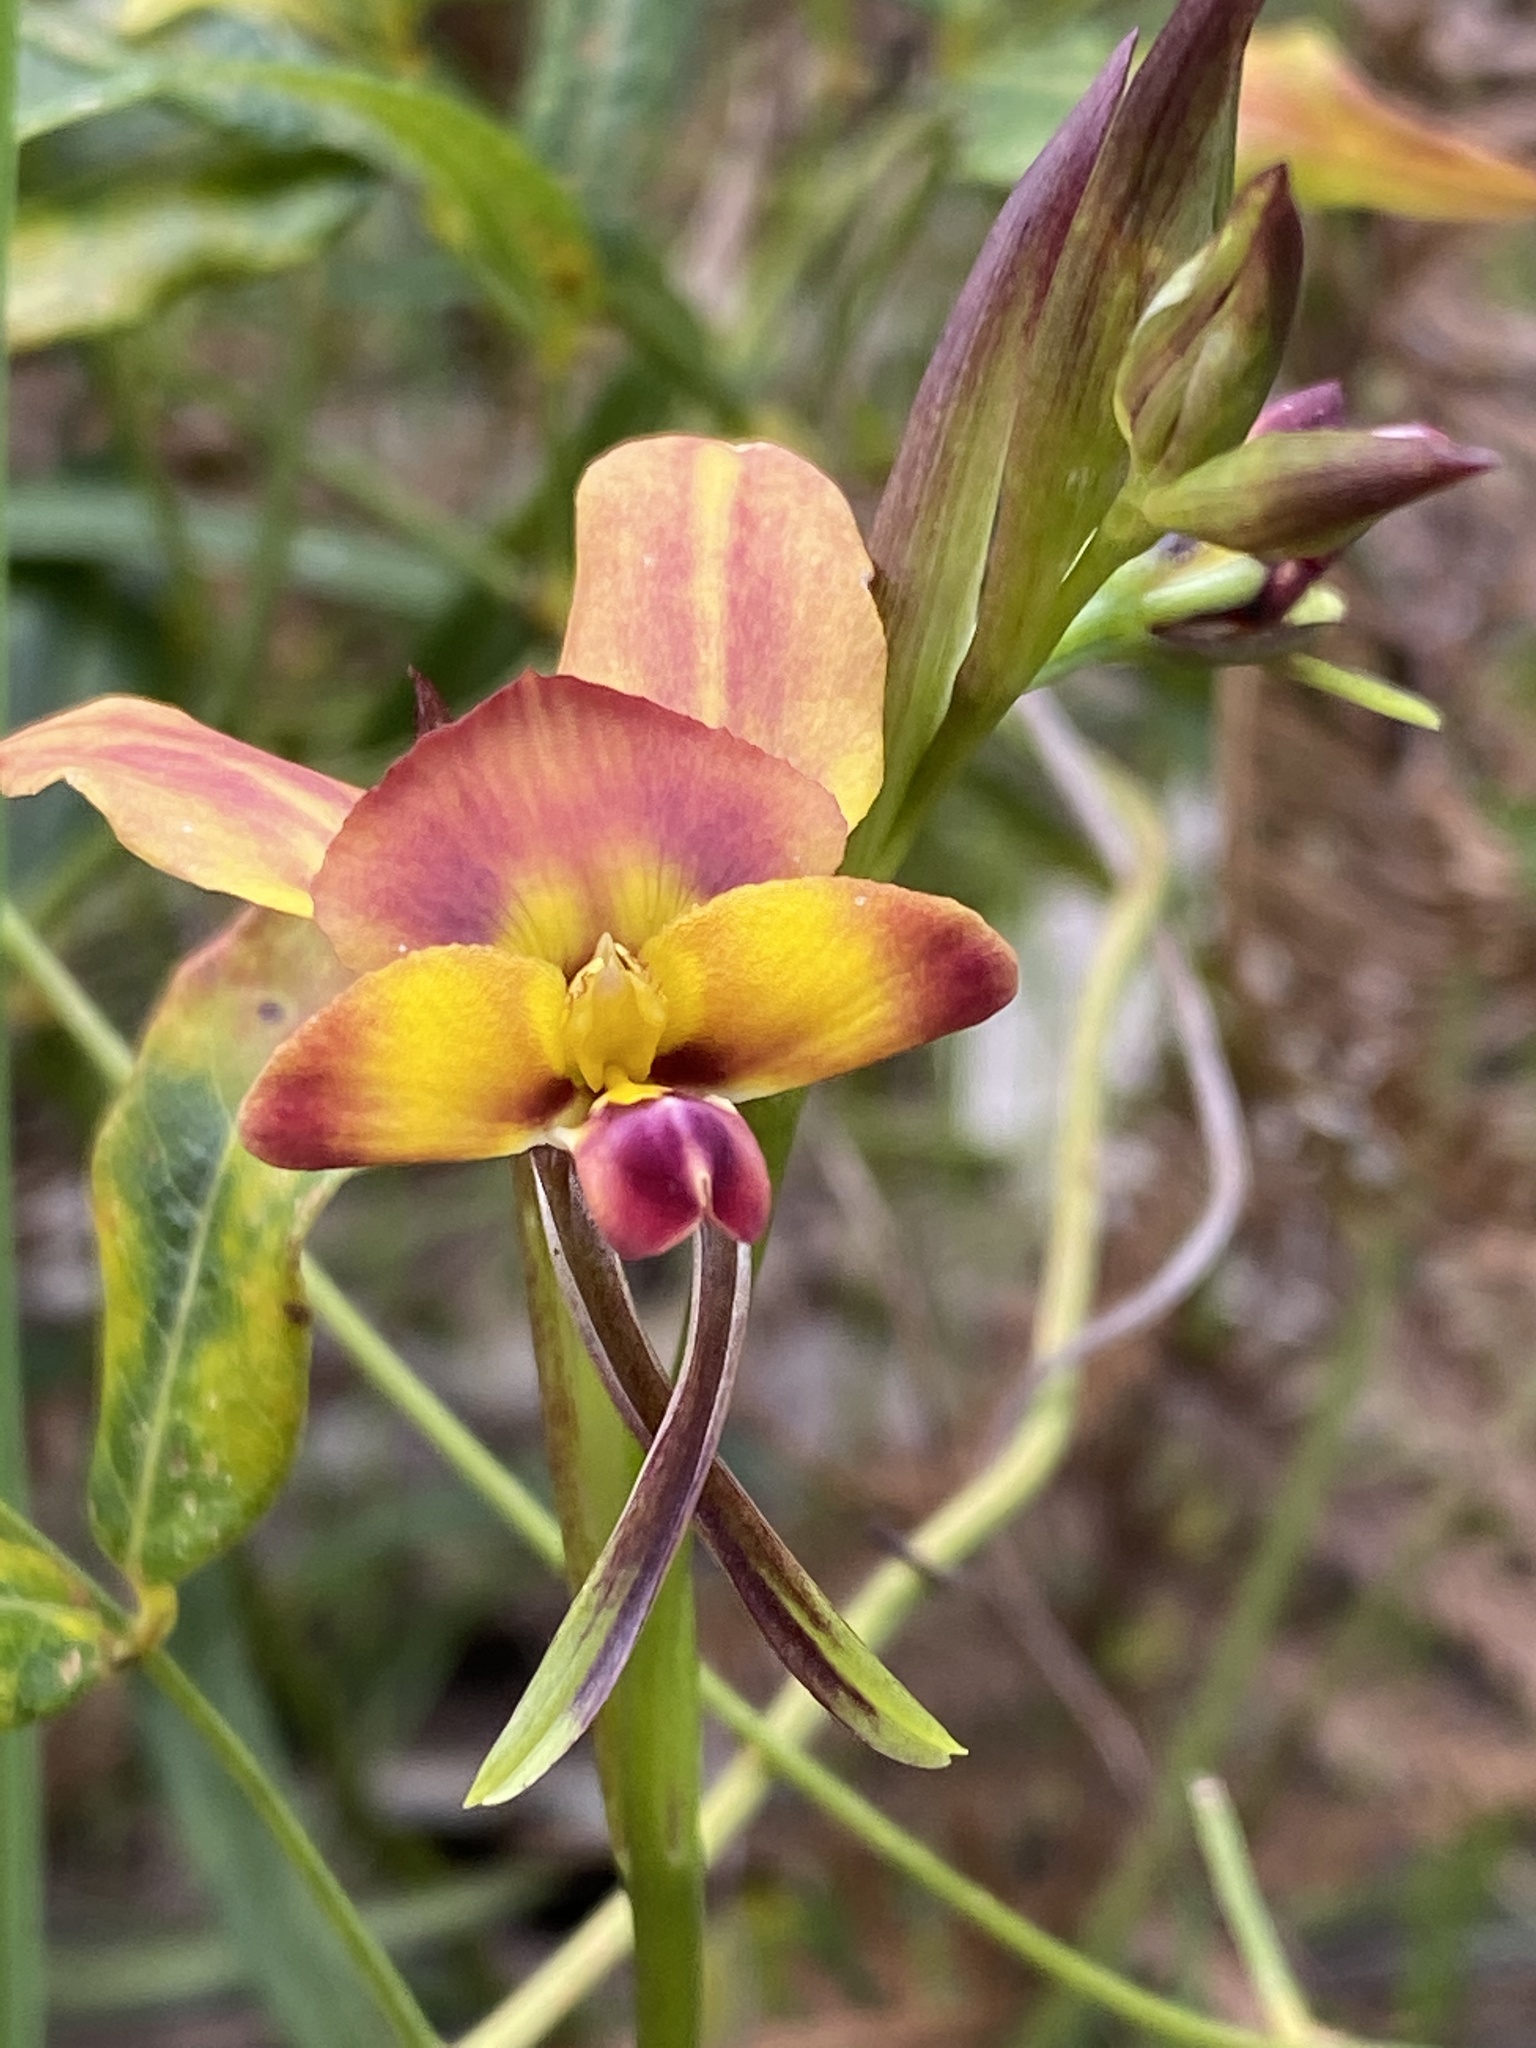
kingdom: Plantae
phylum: Tracheophyta
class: Liliopsida
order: Asparagales
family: Orchidaceae
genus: Diuris
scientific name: Diuris jonesii
